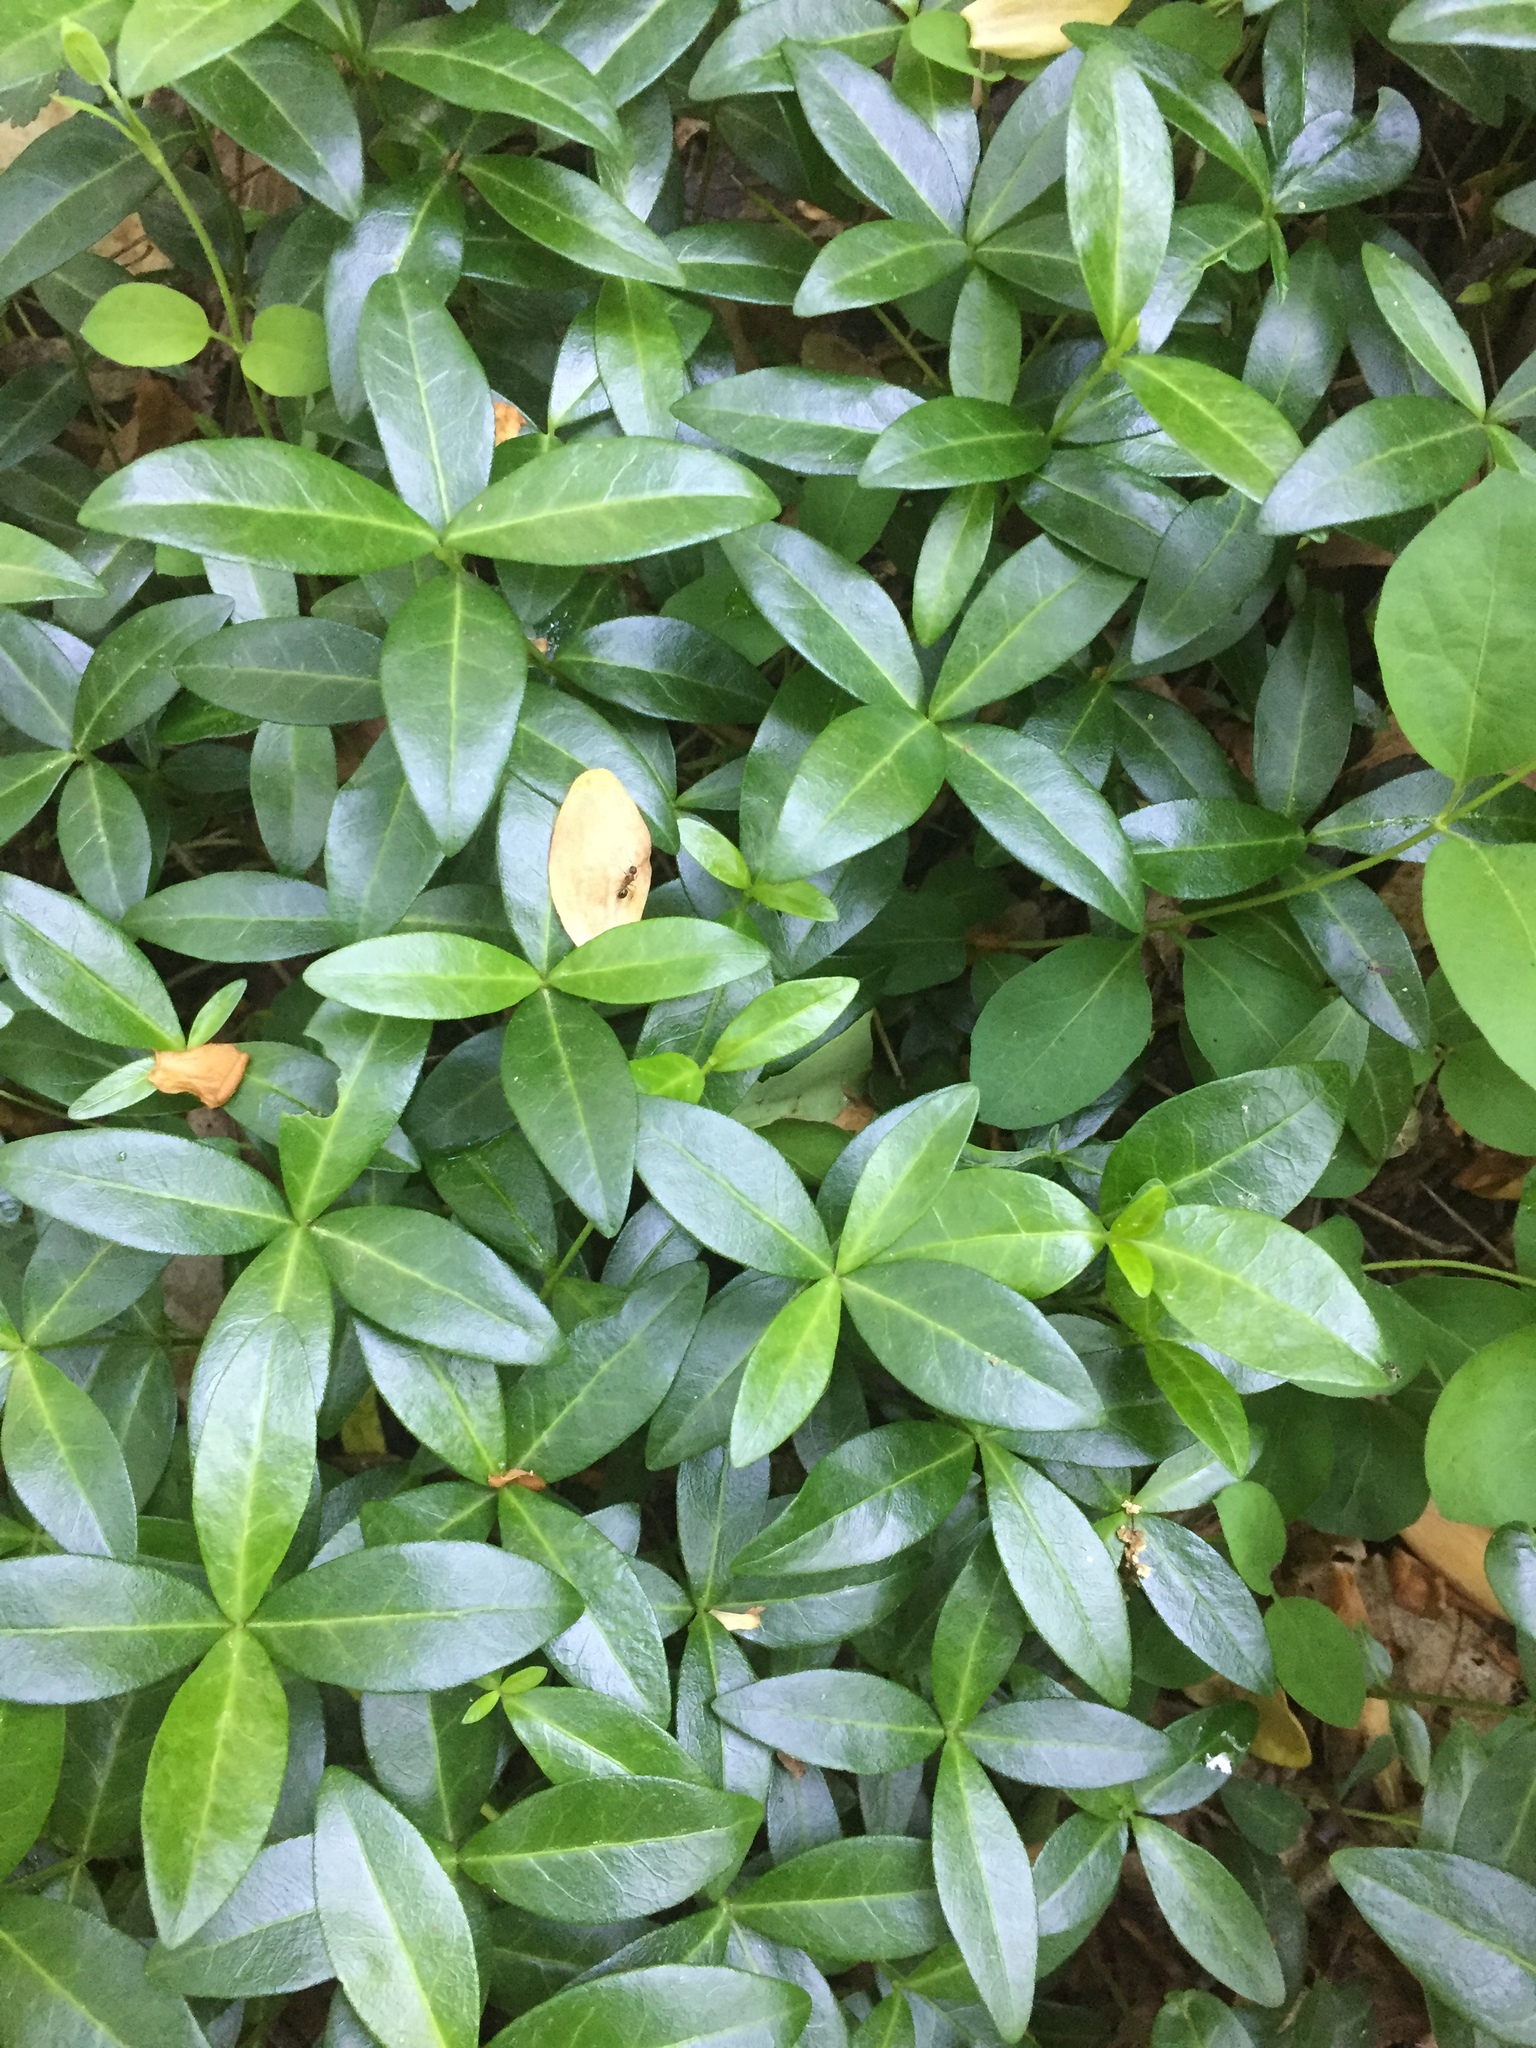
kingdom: Plantae
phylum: Tracheophyta
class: Magnoliopsida
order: Gentianales
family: Apocynaceae
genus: Vinca
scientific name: Vinca minor
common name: Lesser periwinkle
